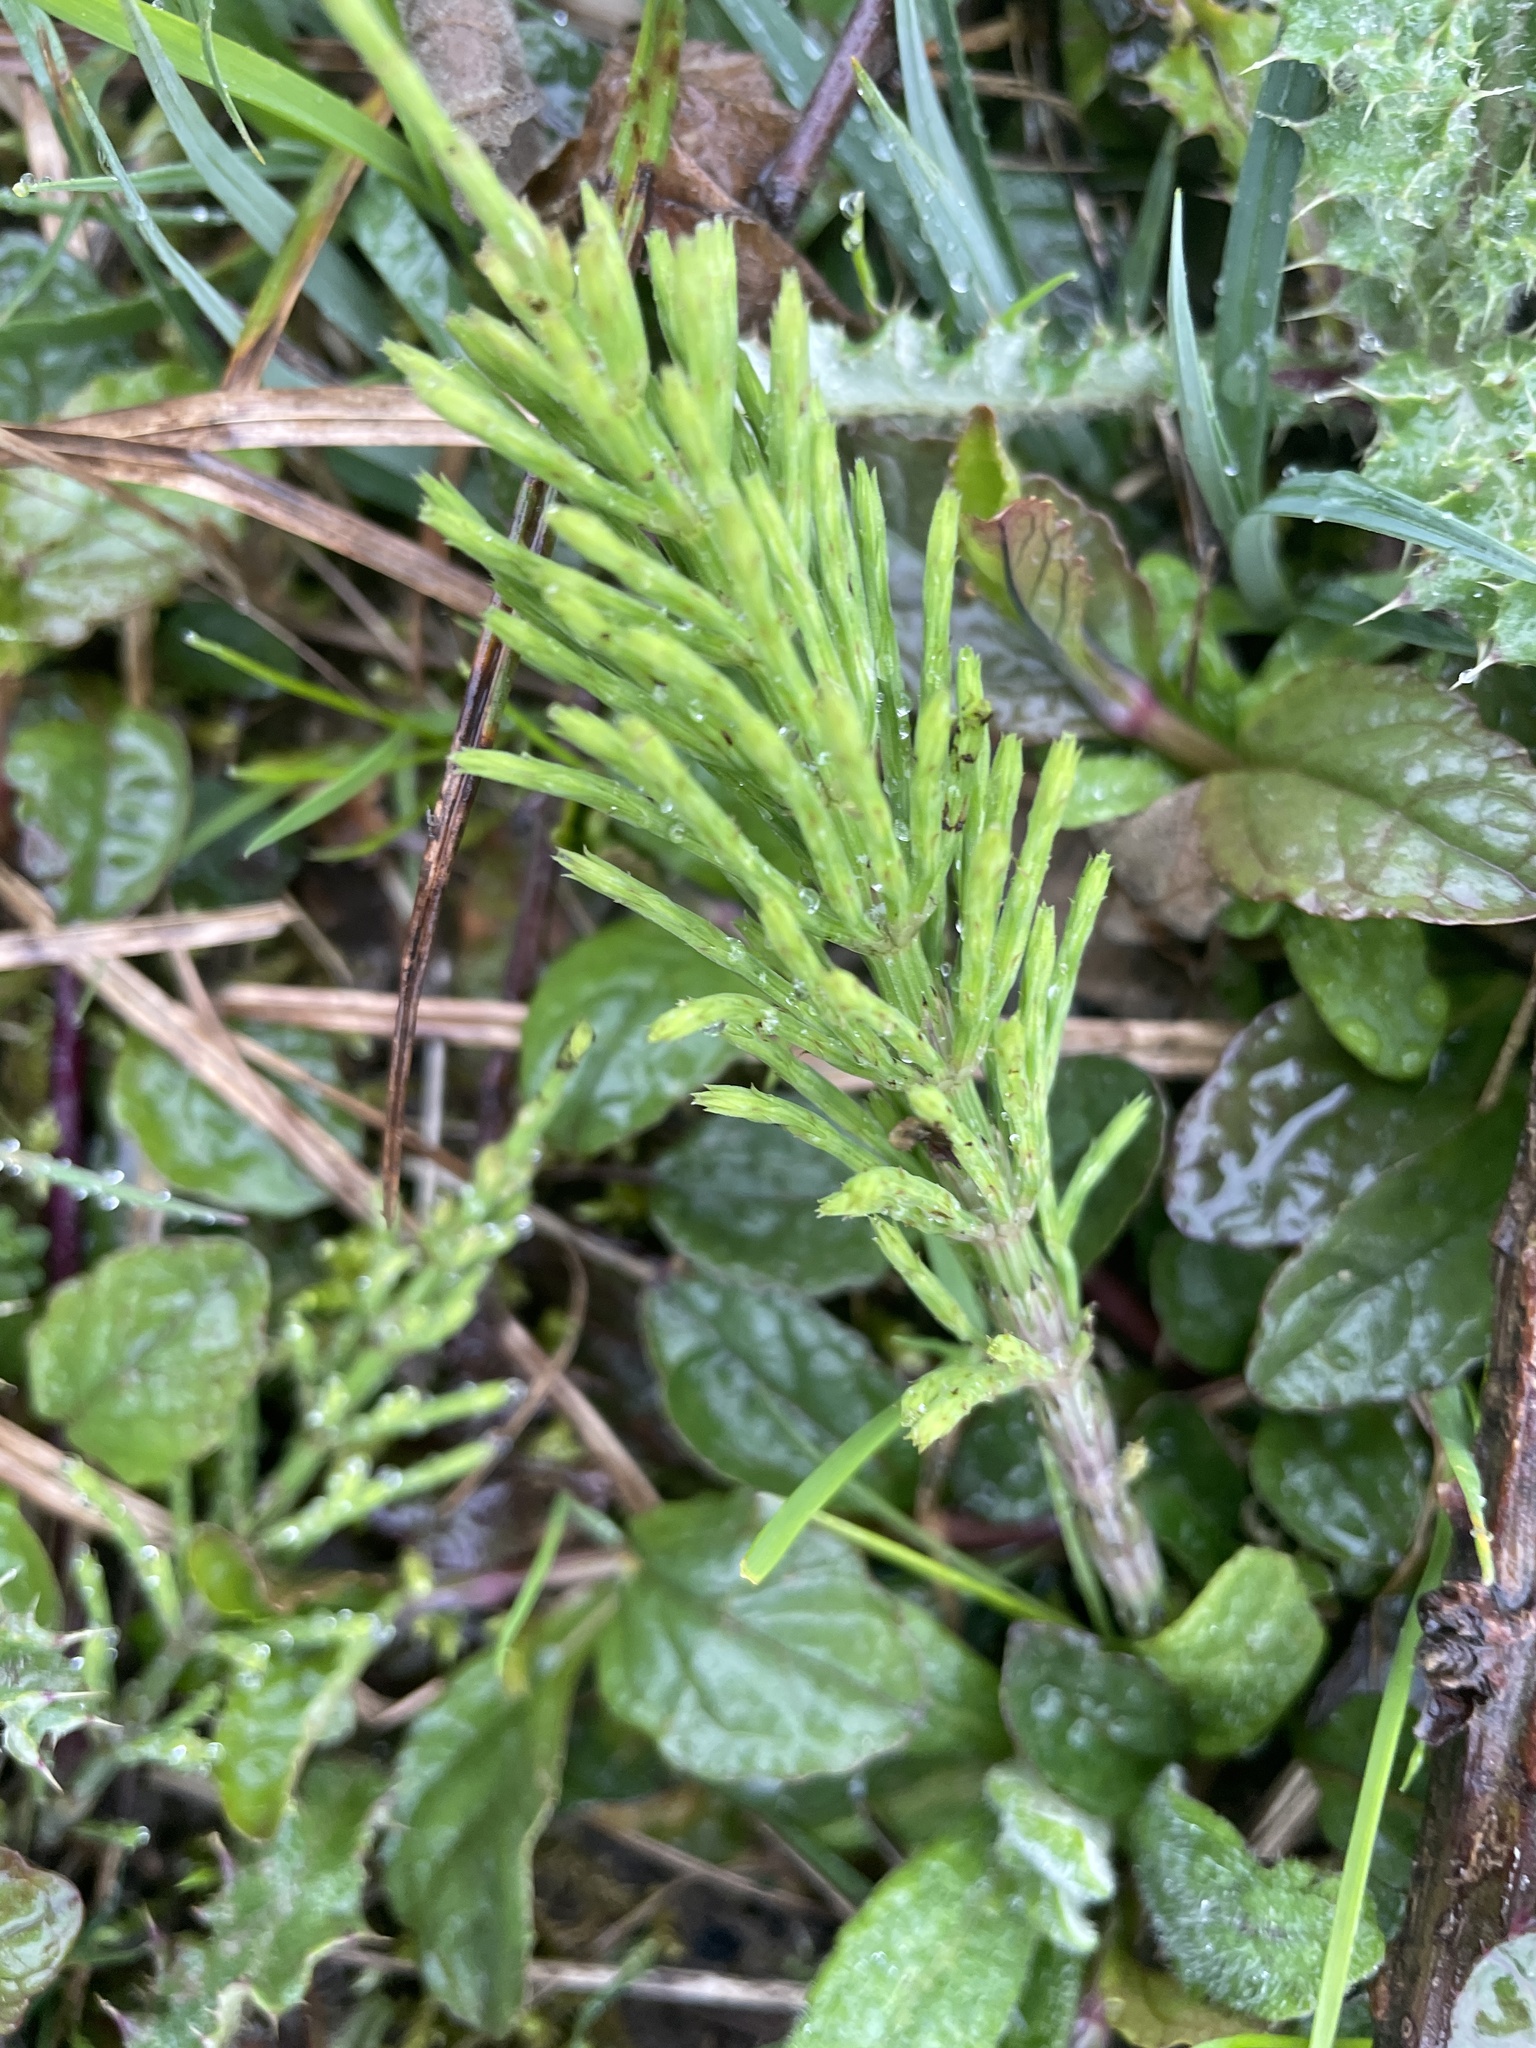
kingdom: Plantae
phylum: Tracheophyta
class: Polypodiopsida
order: Equisetales
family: Equisetaceae
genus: Equisetum
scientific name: Equisetum arvense
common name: Field horsetail
